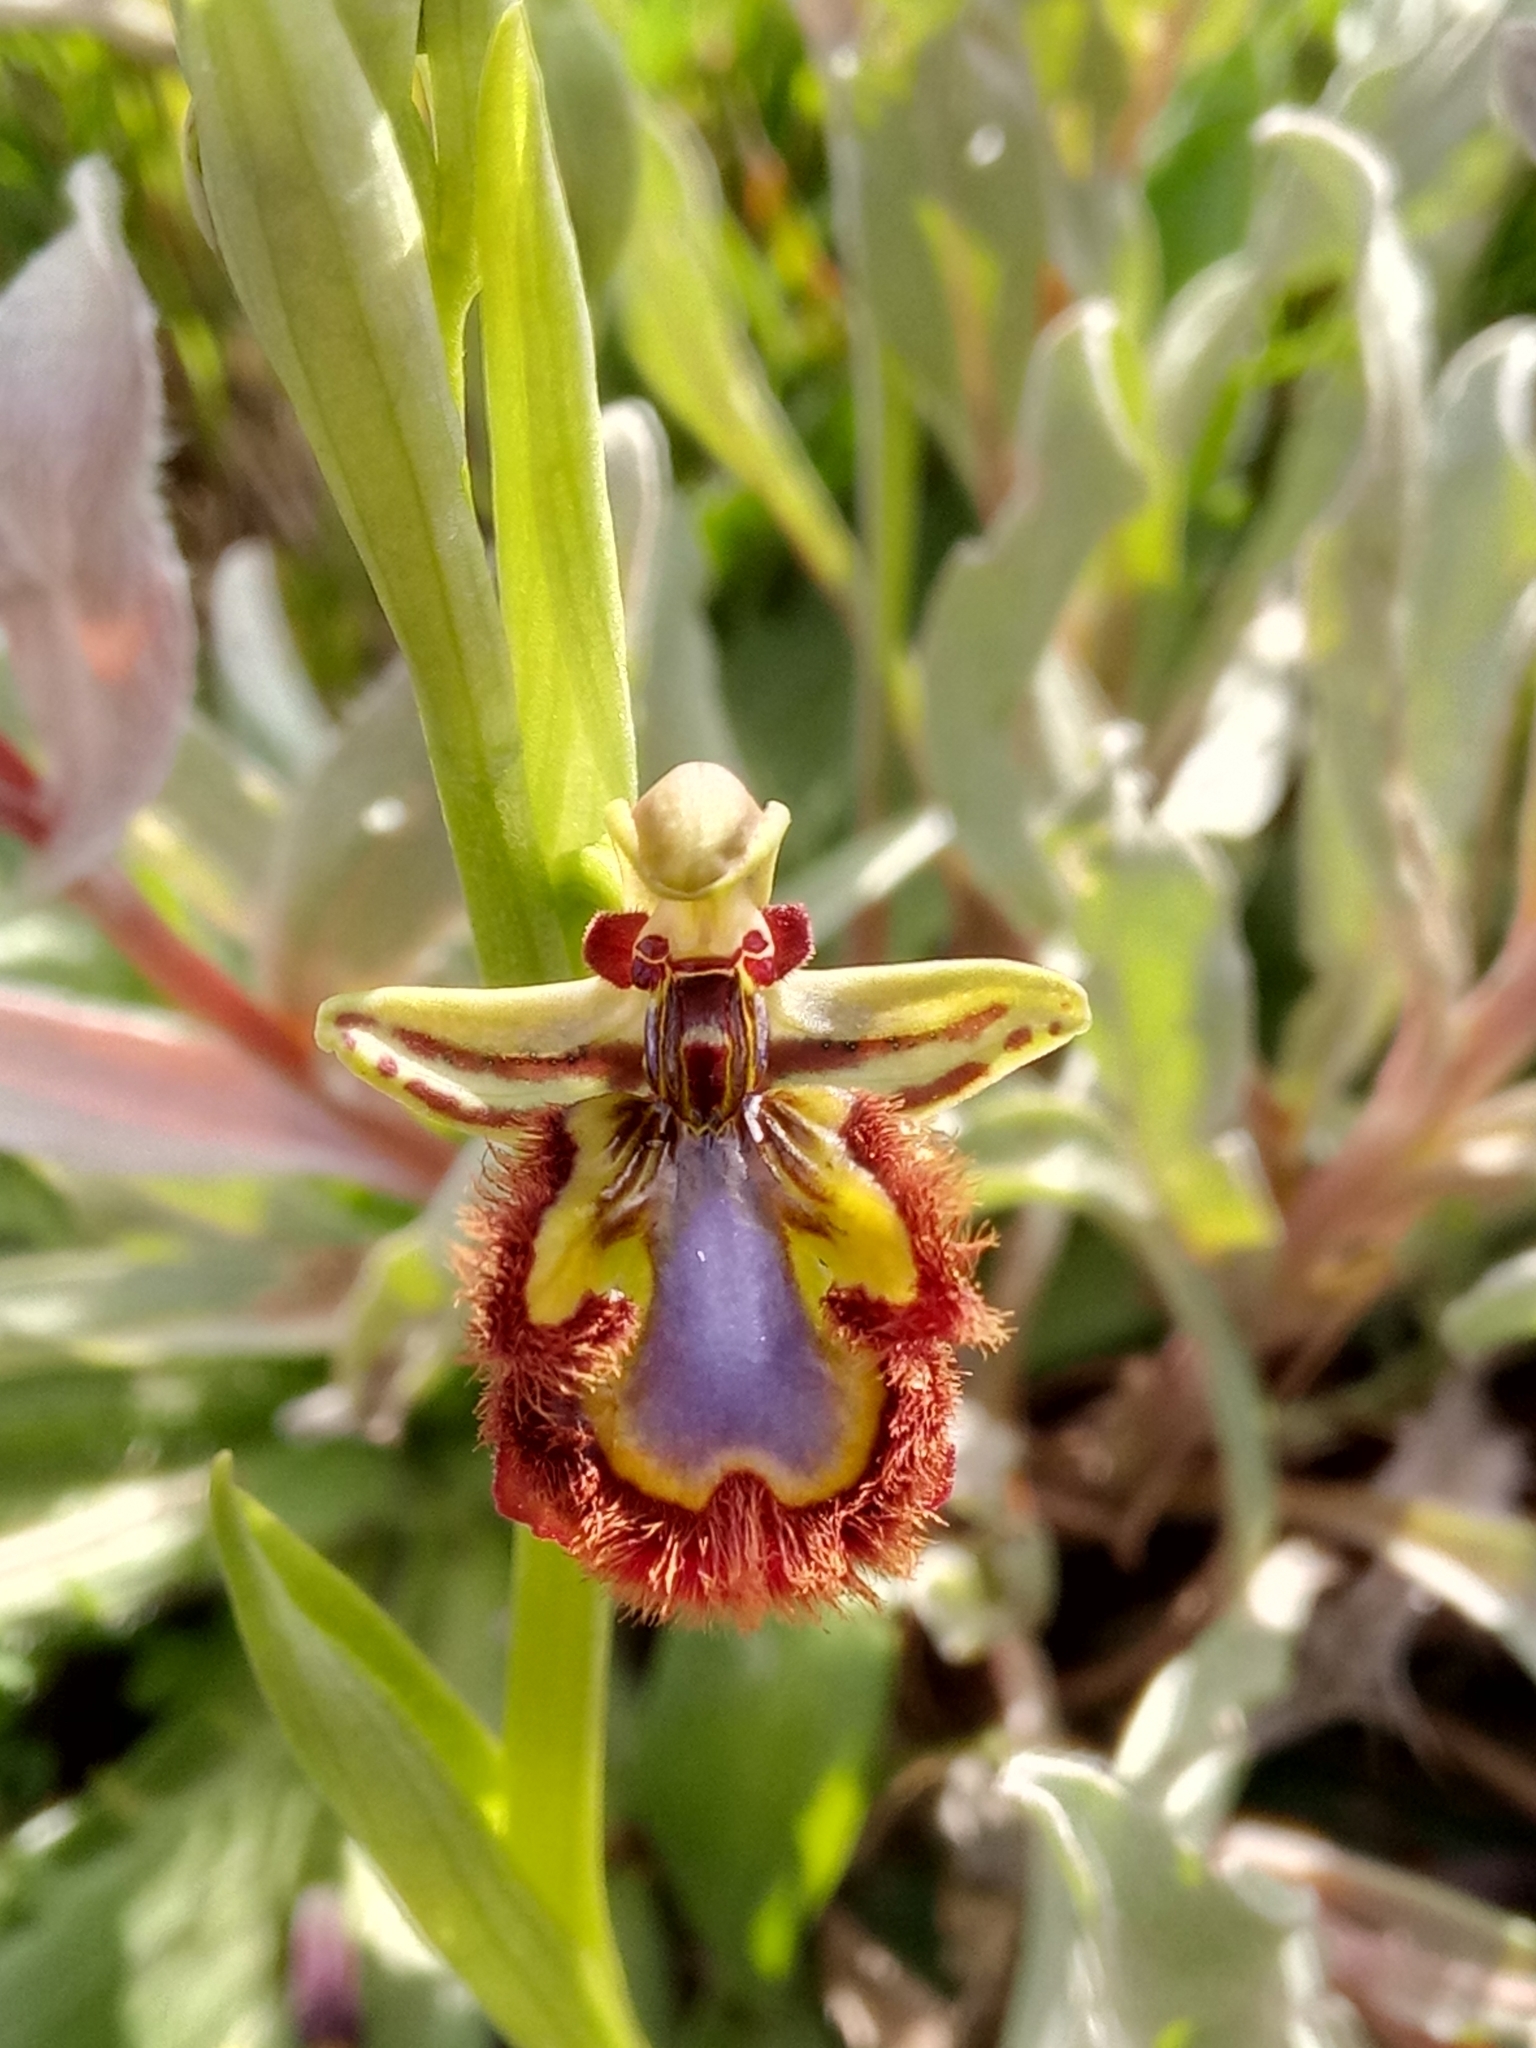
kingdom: Plantae
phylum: Tracheophyta
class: Liliopsida
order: Asparagales
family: Orchidaceae
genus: Ophrys
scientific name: Ophrys speculum
